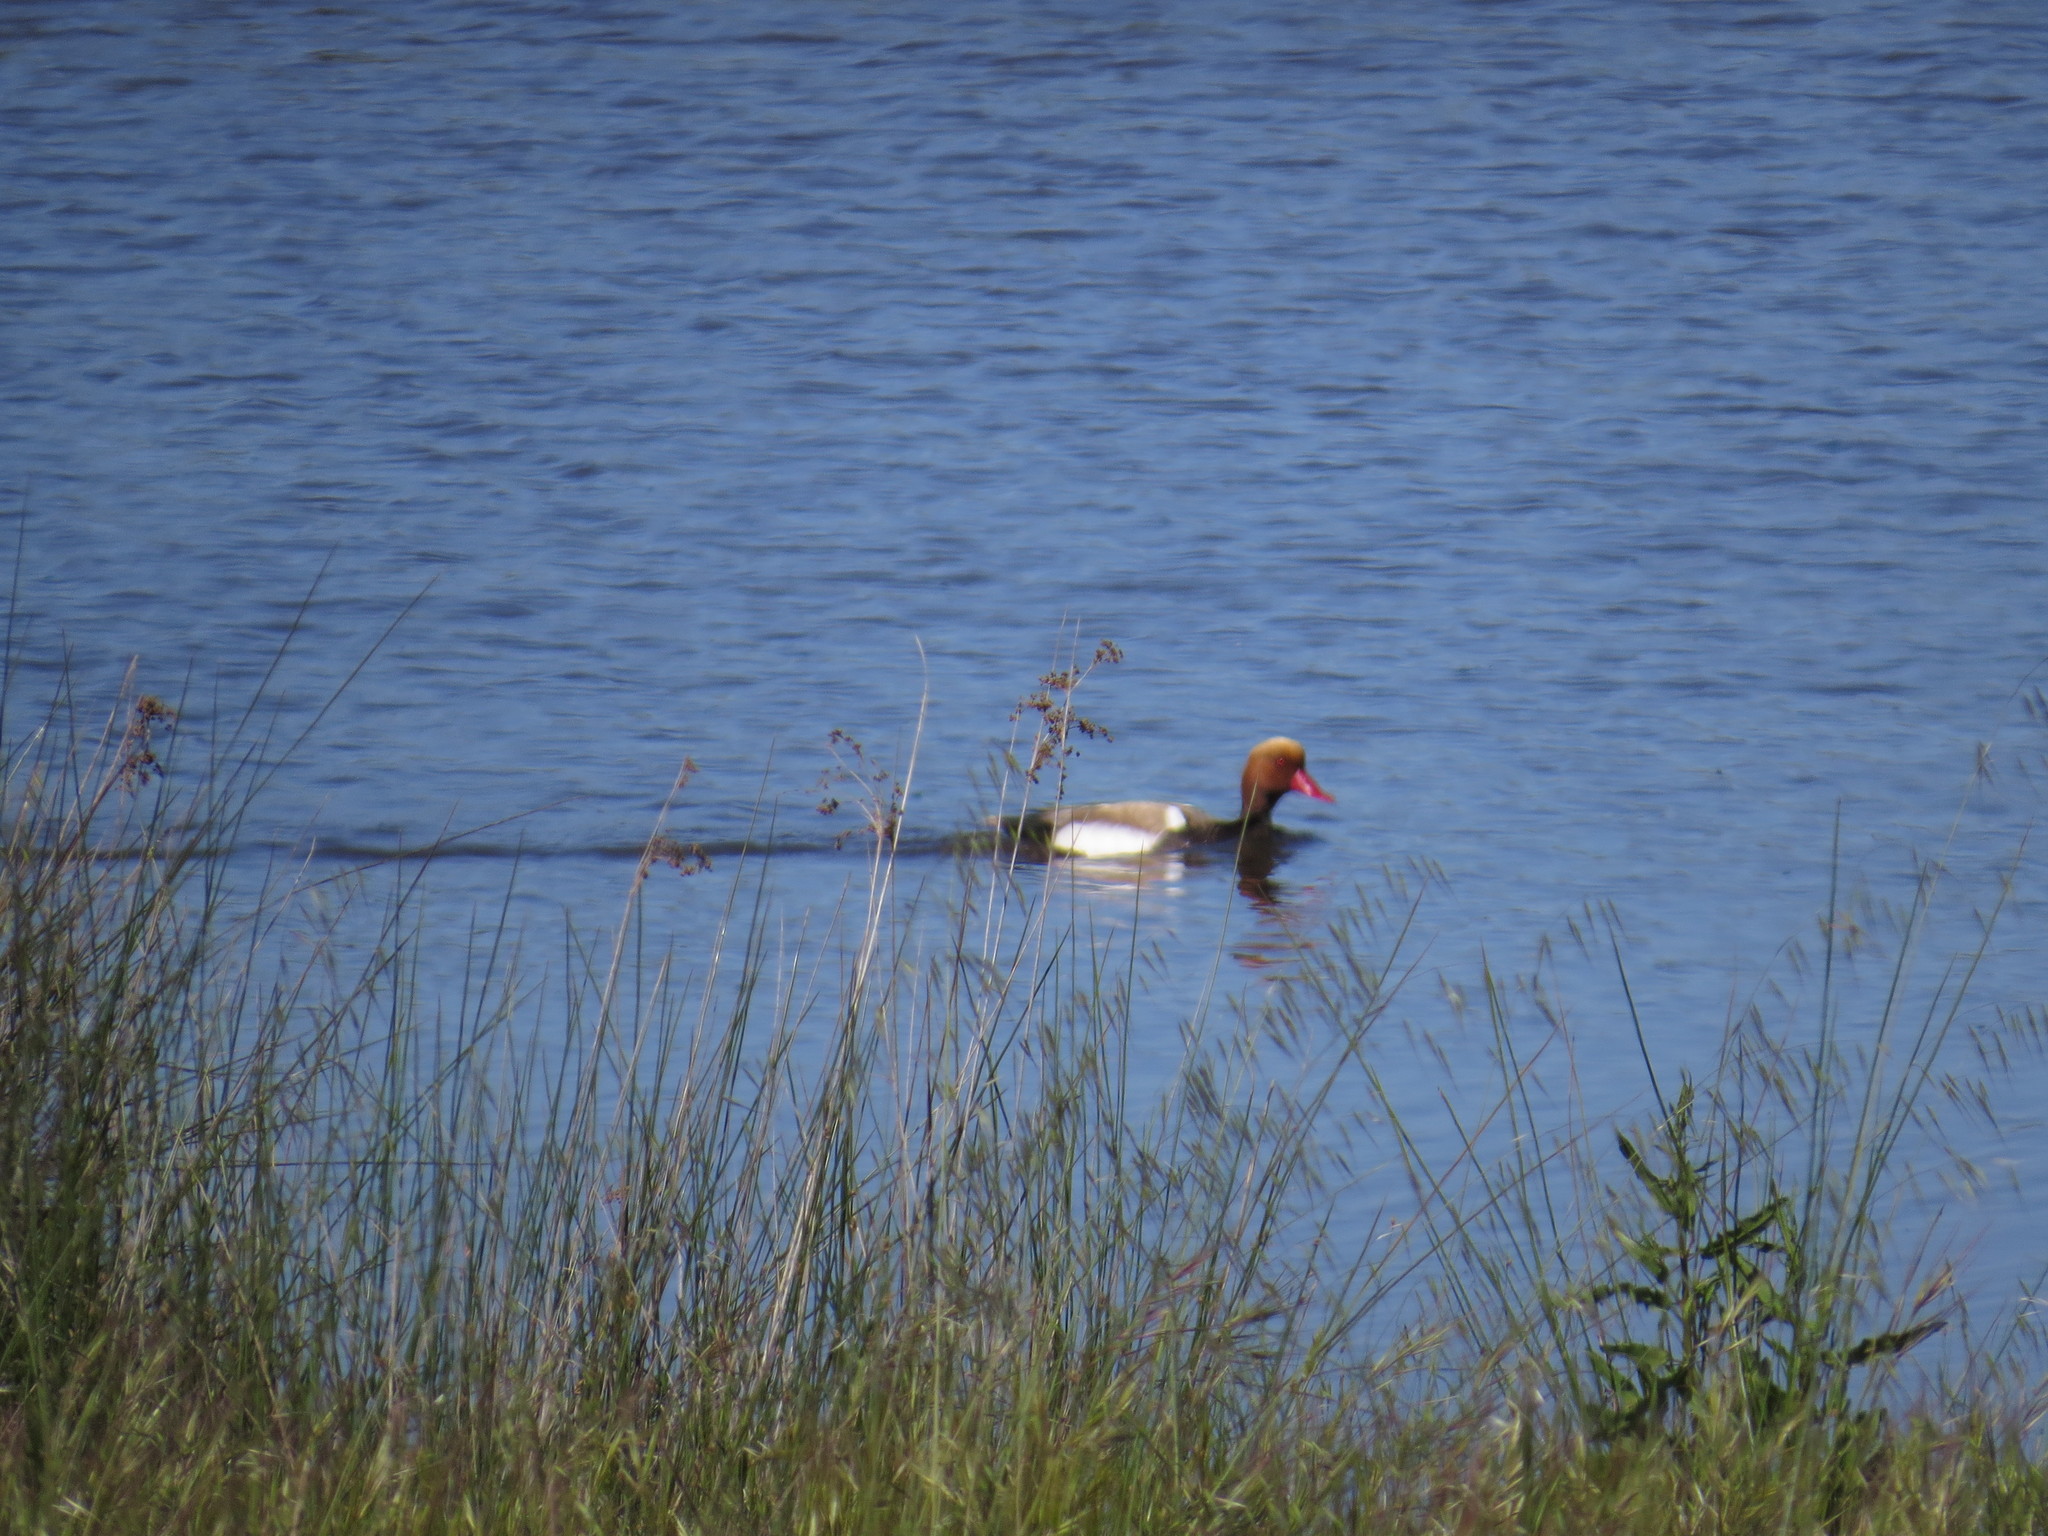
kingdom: Animalia
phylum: Chordata
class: Aves
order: Anseriformes
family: Anatidae
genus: Netta
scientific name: Netta rufina
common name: Red-crested pochard
